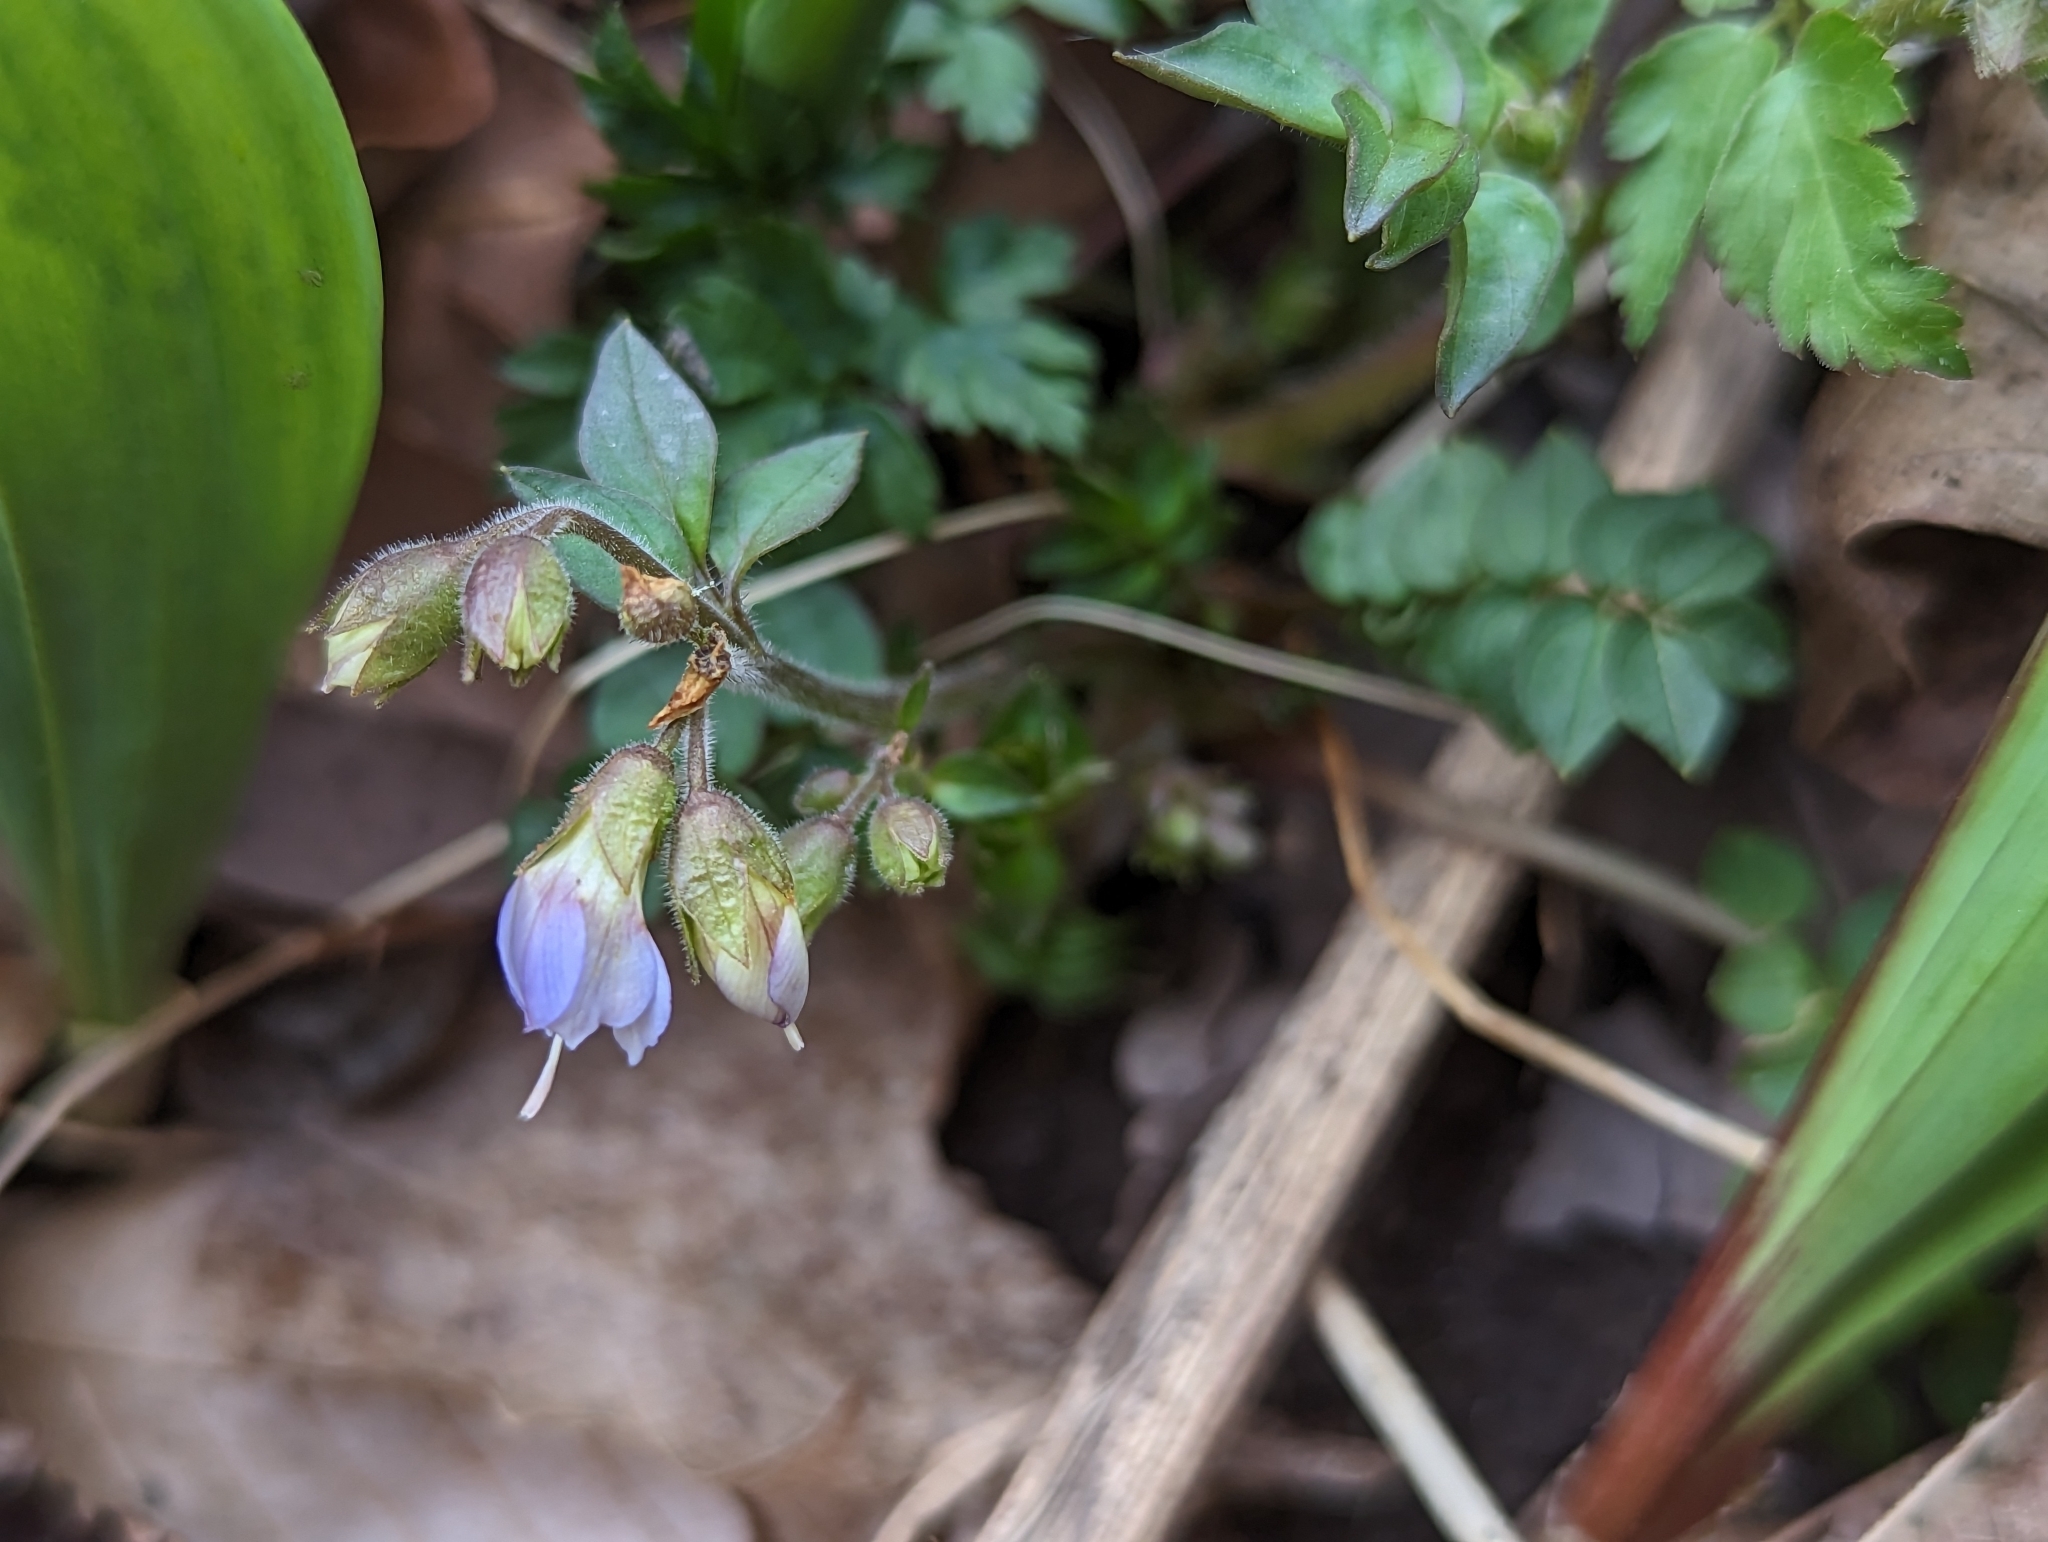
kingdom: Plantae
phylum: Tracheophyta
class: Magnoliopsida
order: Ericales
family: Polemoniaceae
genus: Polemonium
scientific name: Polemonium reptans
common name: Creeping jacob's-ladder
